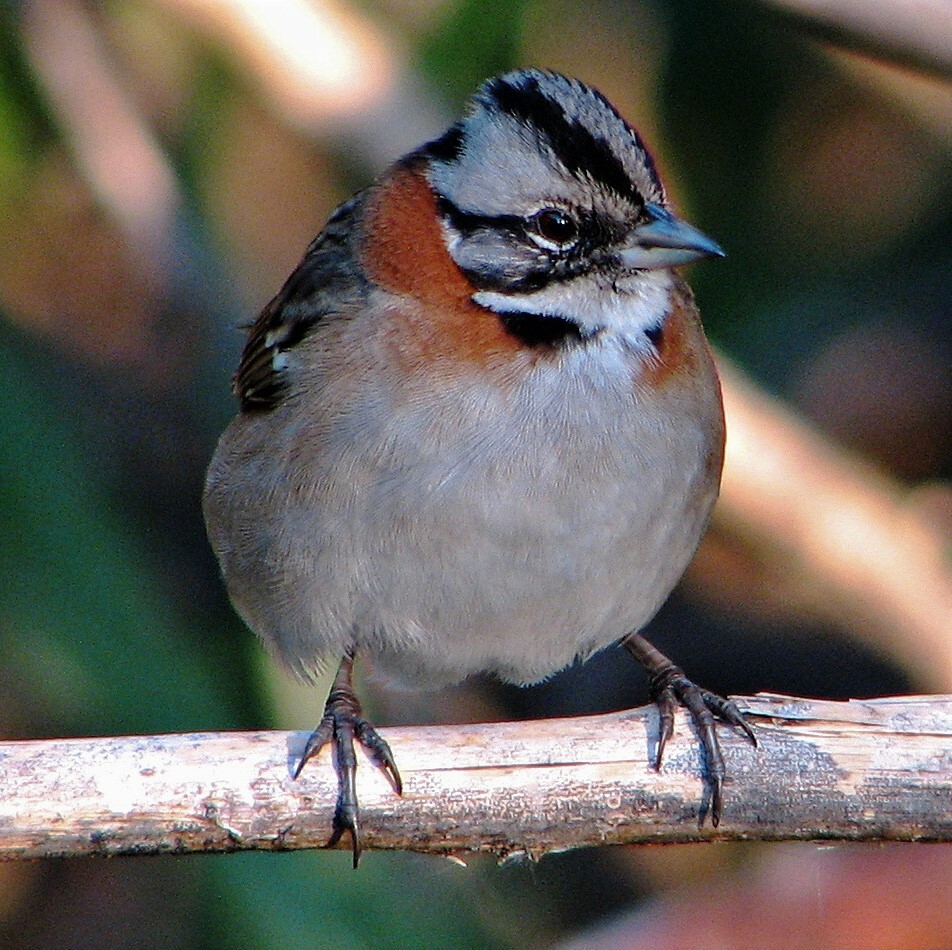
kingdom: Animalia
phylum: Chordata
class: Aves
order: Passeriformes
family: Passerellidae
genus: Zonotrichia
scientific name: Zonotrichia capensis
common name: Rufous-collared sparrow
